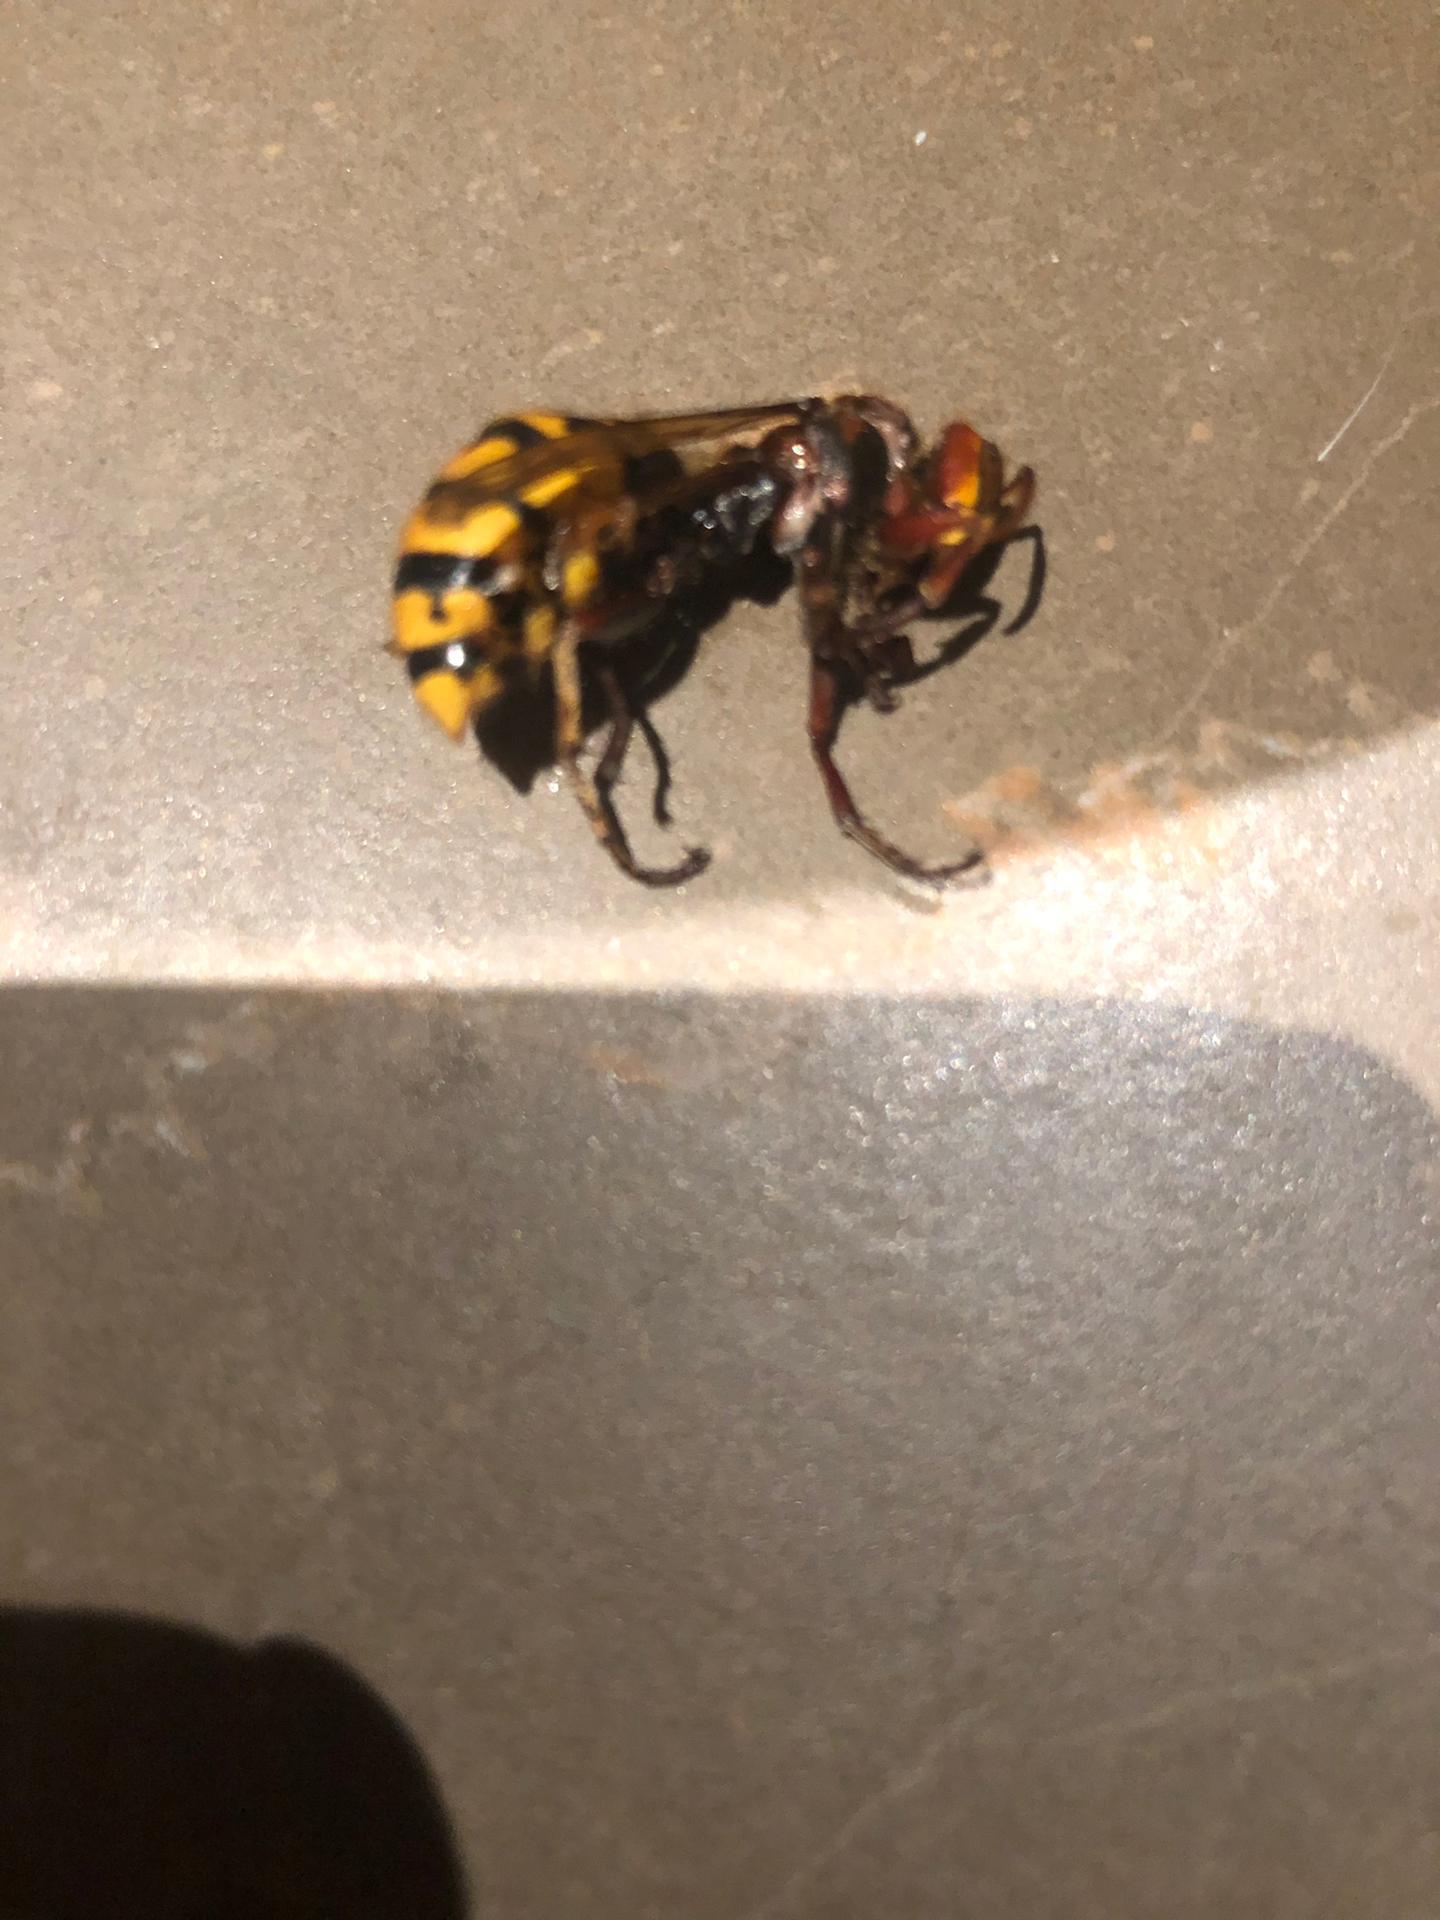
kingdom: Animalia
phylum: Arthropoda
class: Insecta
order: Hymenoptera
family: Vespidae
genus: Vespa
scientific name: Vespa crabro
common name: Hornet
